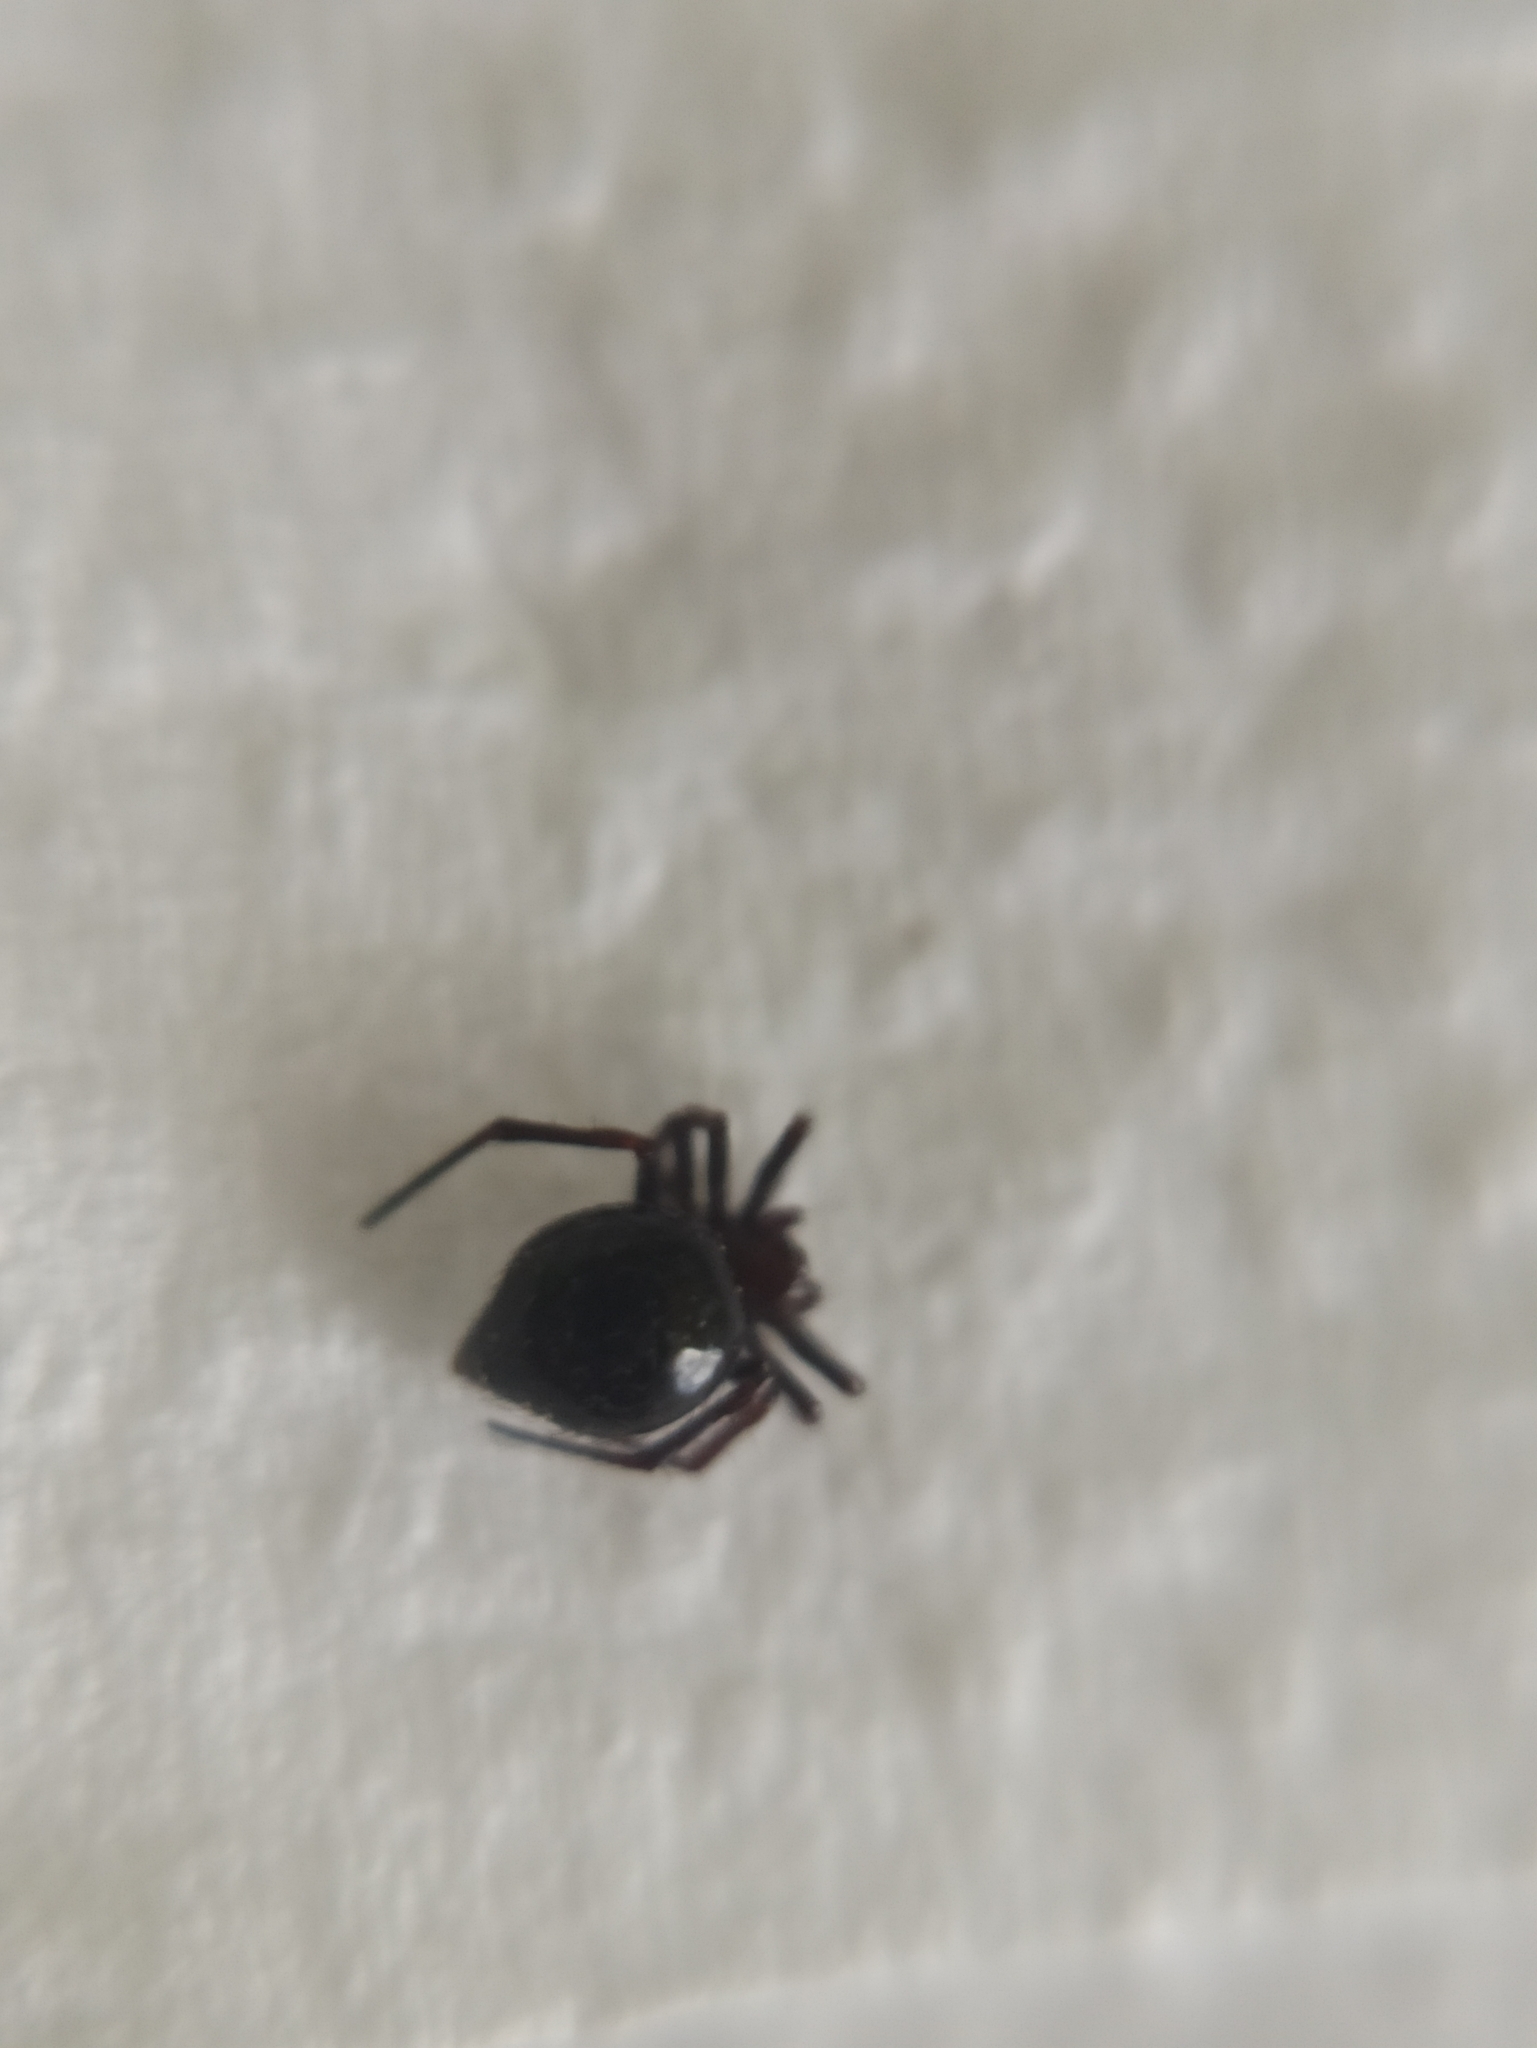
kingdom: Animalia
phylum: Arthropoda
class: Arachnida
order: Araneae
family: Theridiidae
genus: Euryopis
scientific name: Euryopis episinoides
